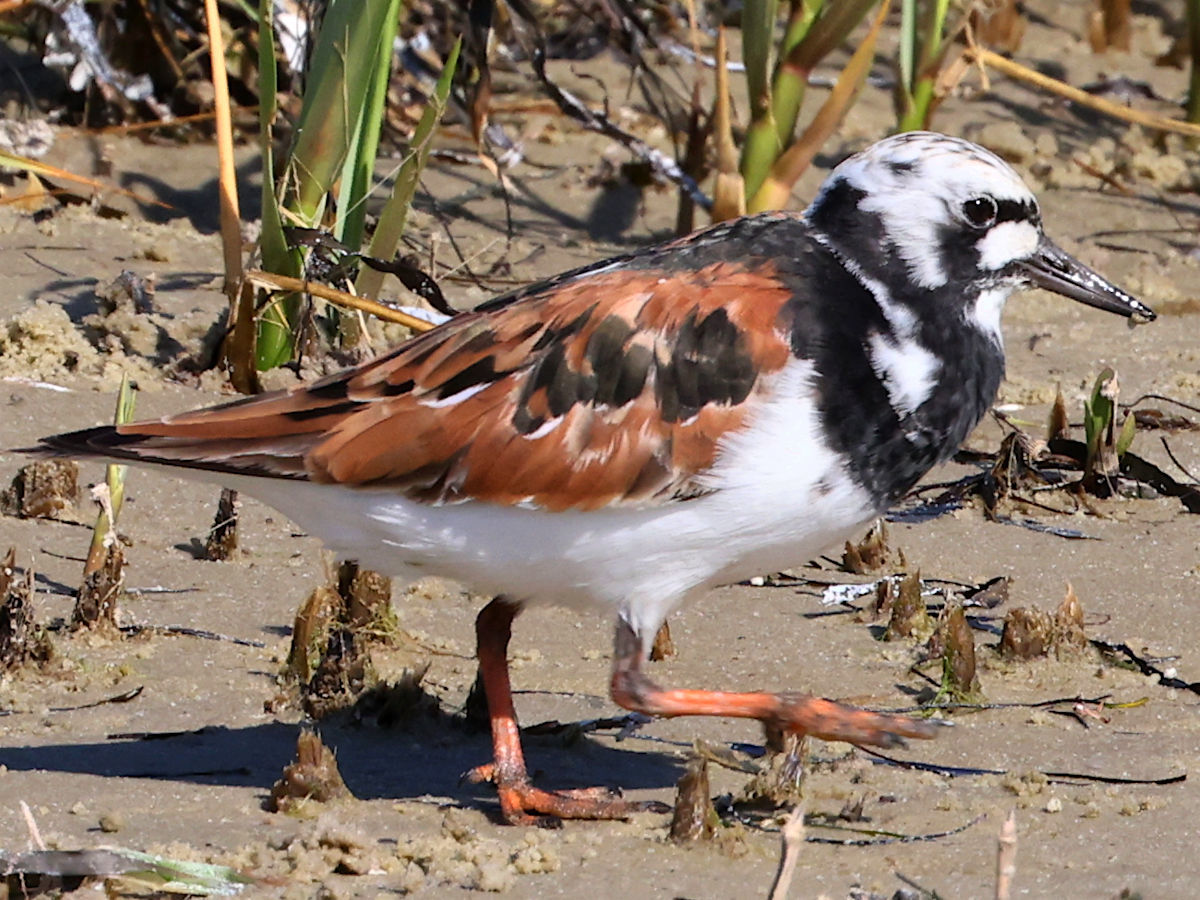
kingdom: Animalia
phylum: Chordata
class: Aves
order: Charadriiformes
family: Scolopacidae
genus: Arenaria
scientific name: Arenaria interpres
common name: Ruddy turnstone
